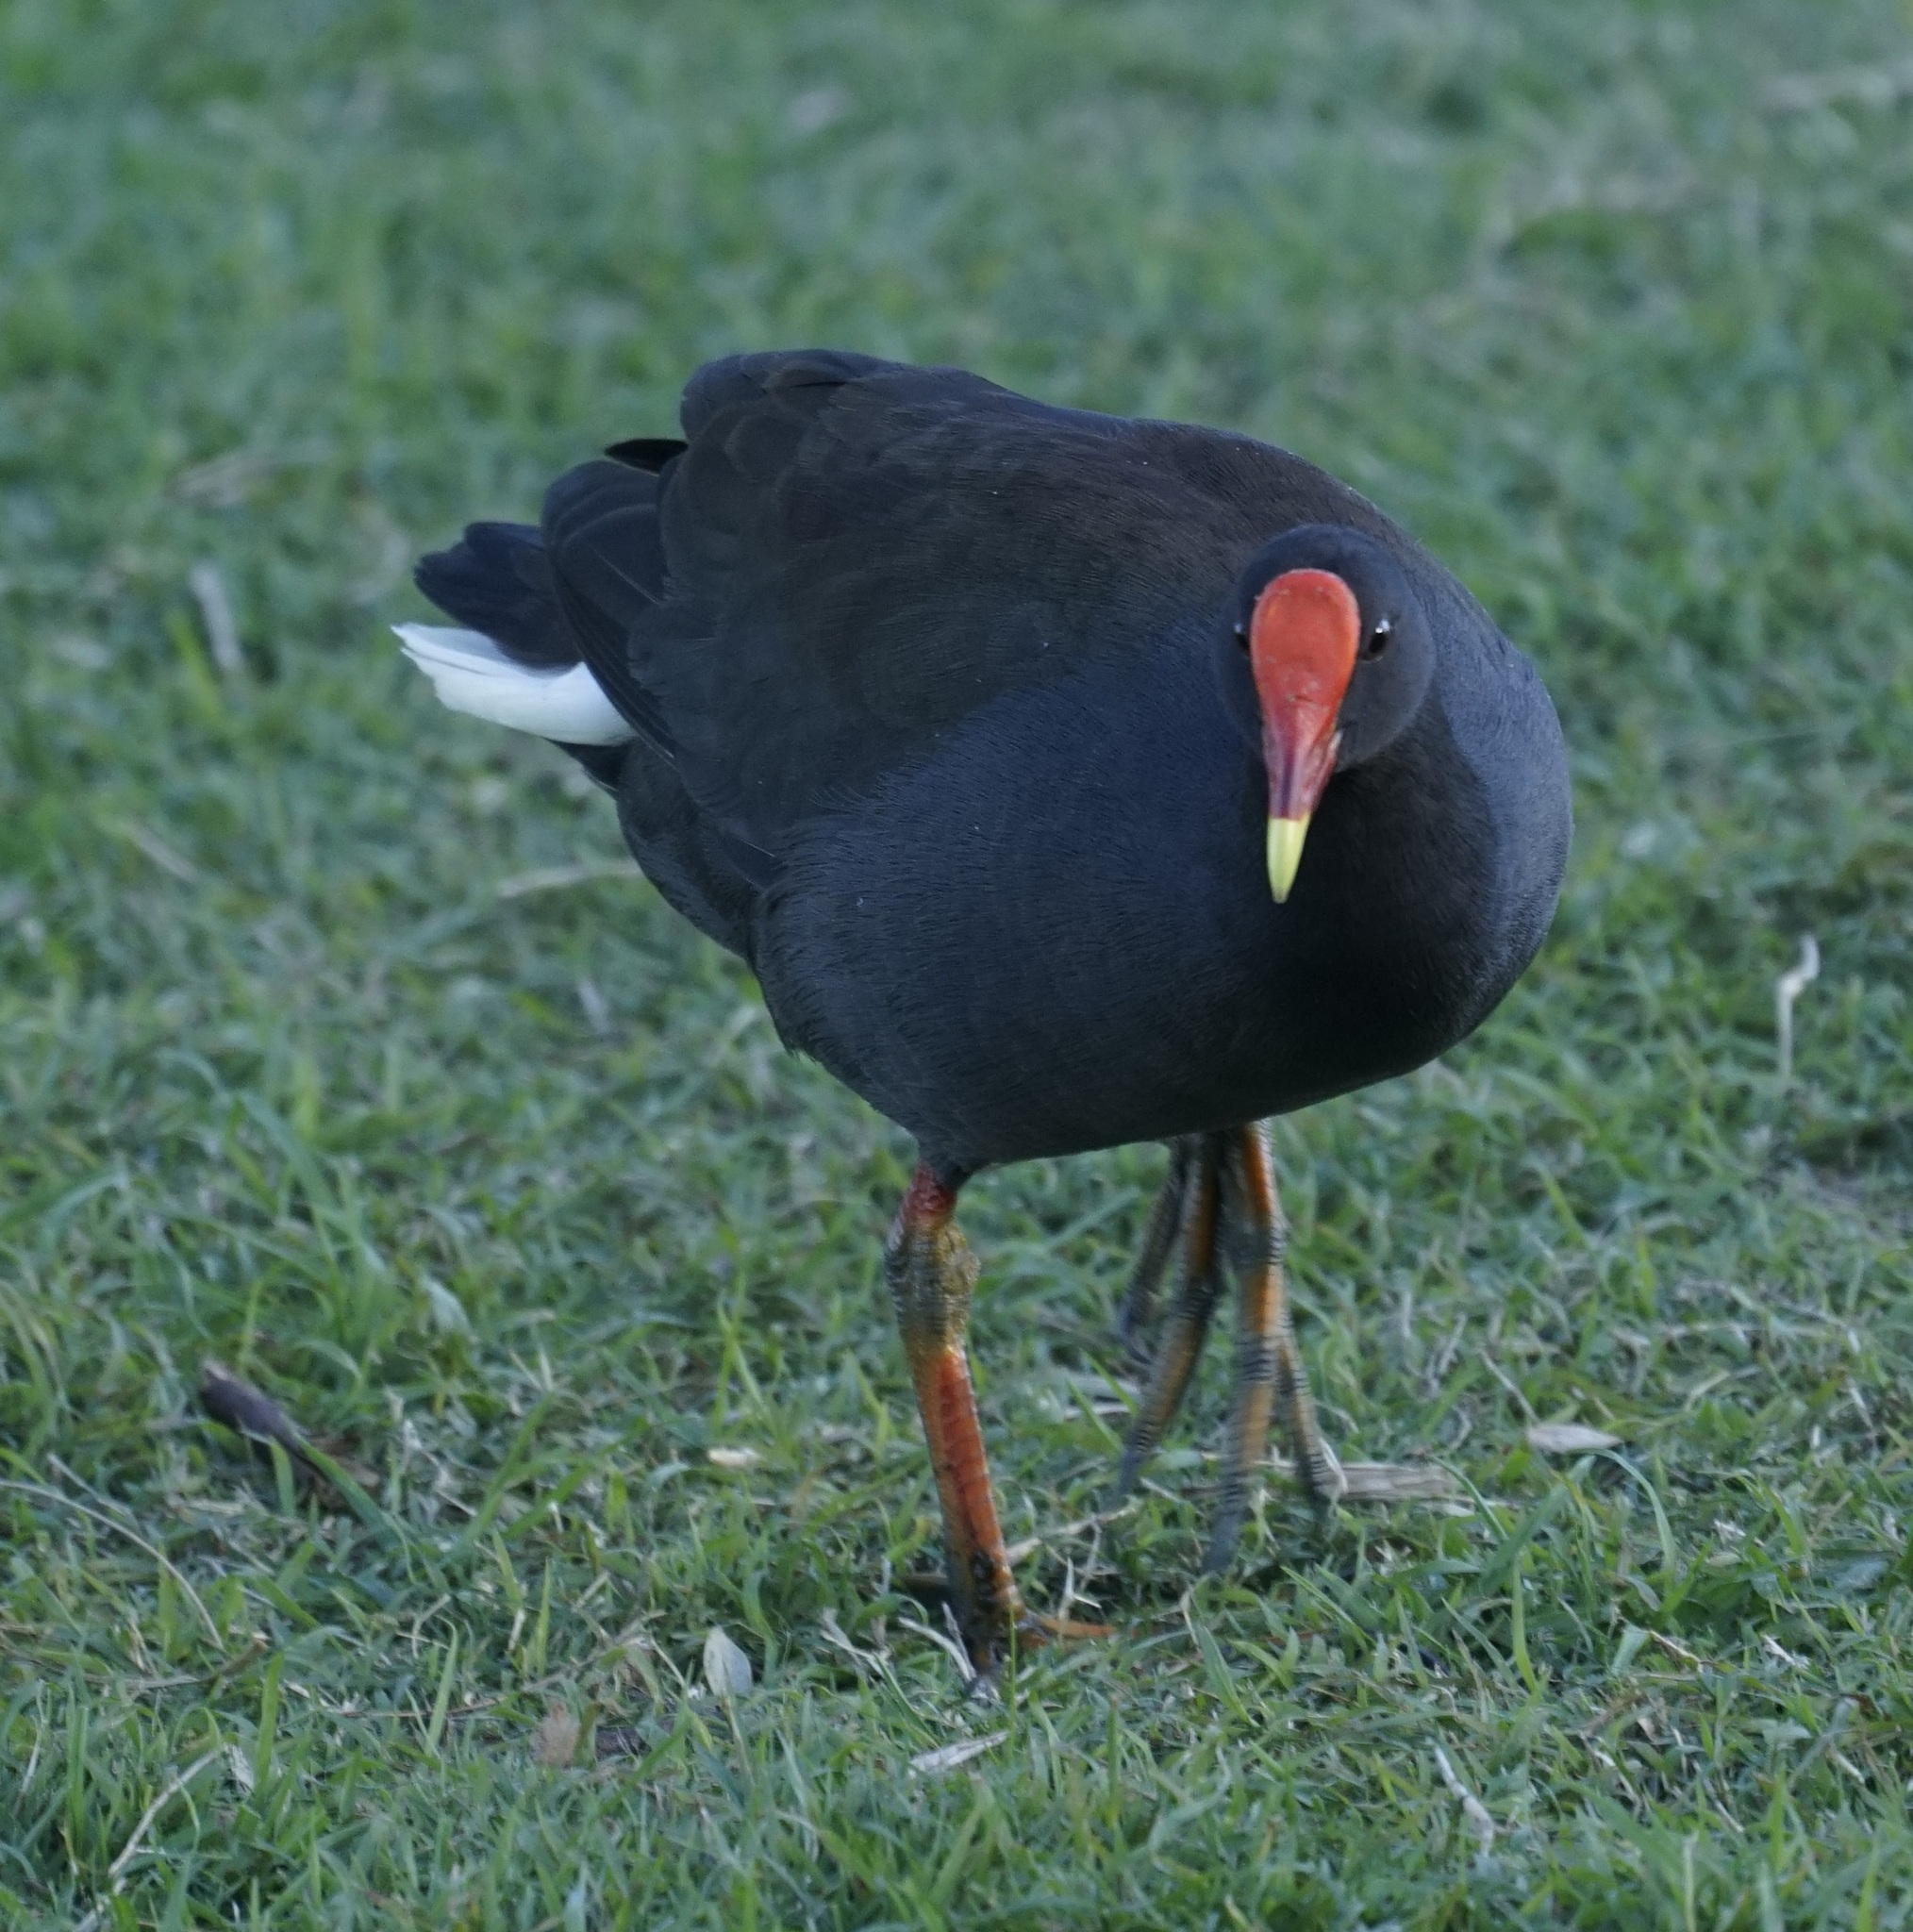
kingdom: Animalia
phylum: Chordata
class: Aves
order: Gruiformes
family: Rallidae
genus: Gallinula
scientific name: Gallinula tenebrosa
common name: Dusky moorhen
